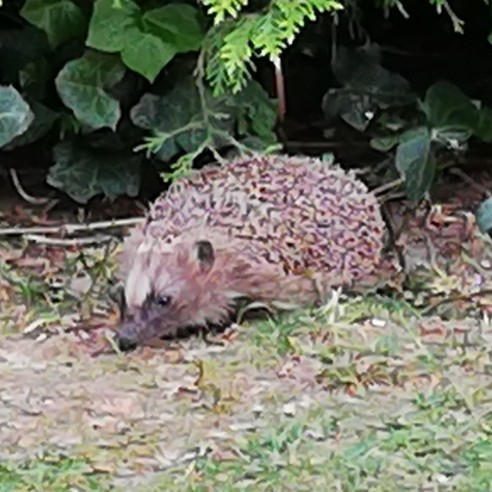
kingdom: Animalia
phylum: Chordata
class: Mammalia
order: Erinaceomorpha
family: Erinaceidae
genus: Erinaceus
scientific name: Erinaceus europaeus
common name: West european hedgehog
